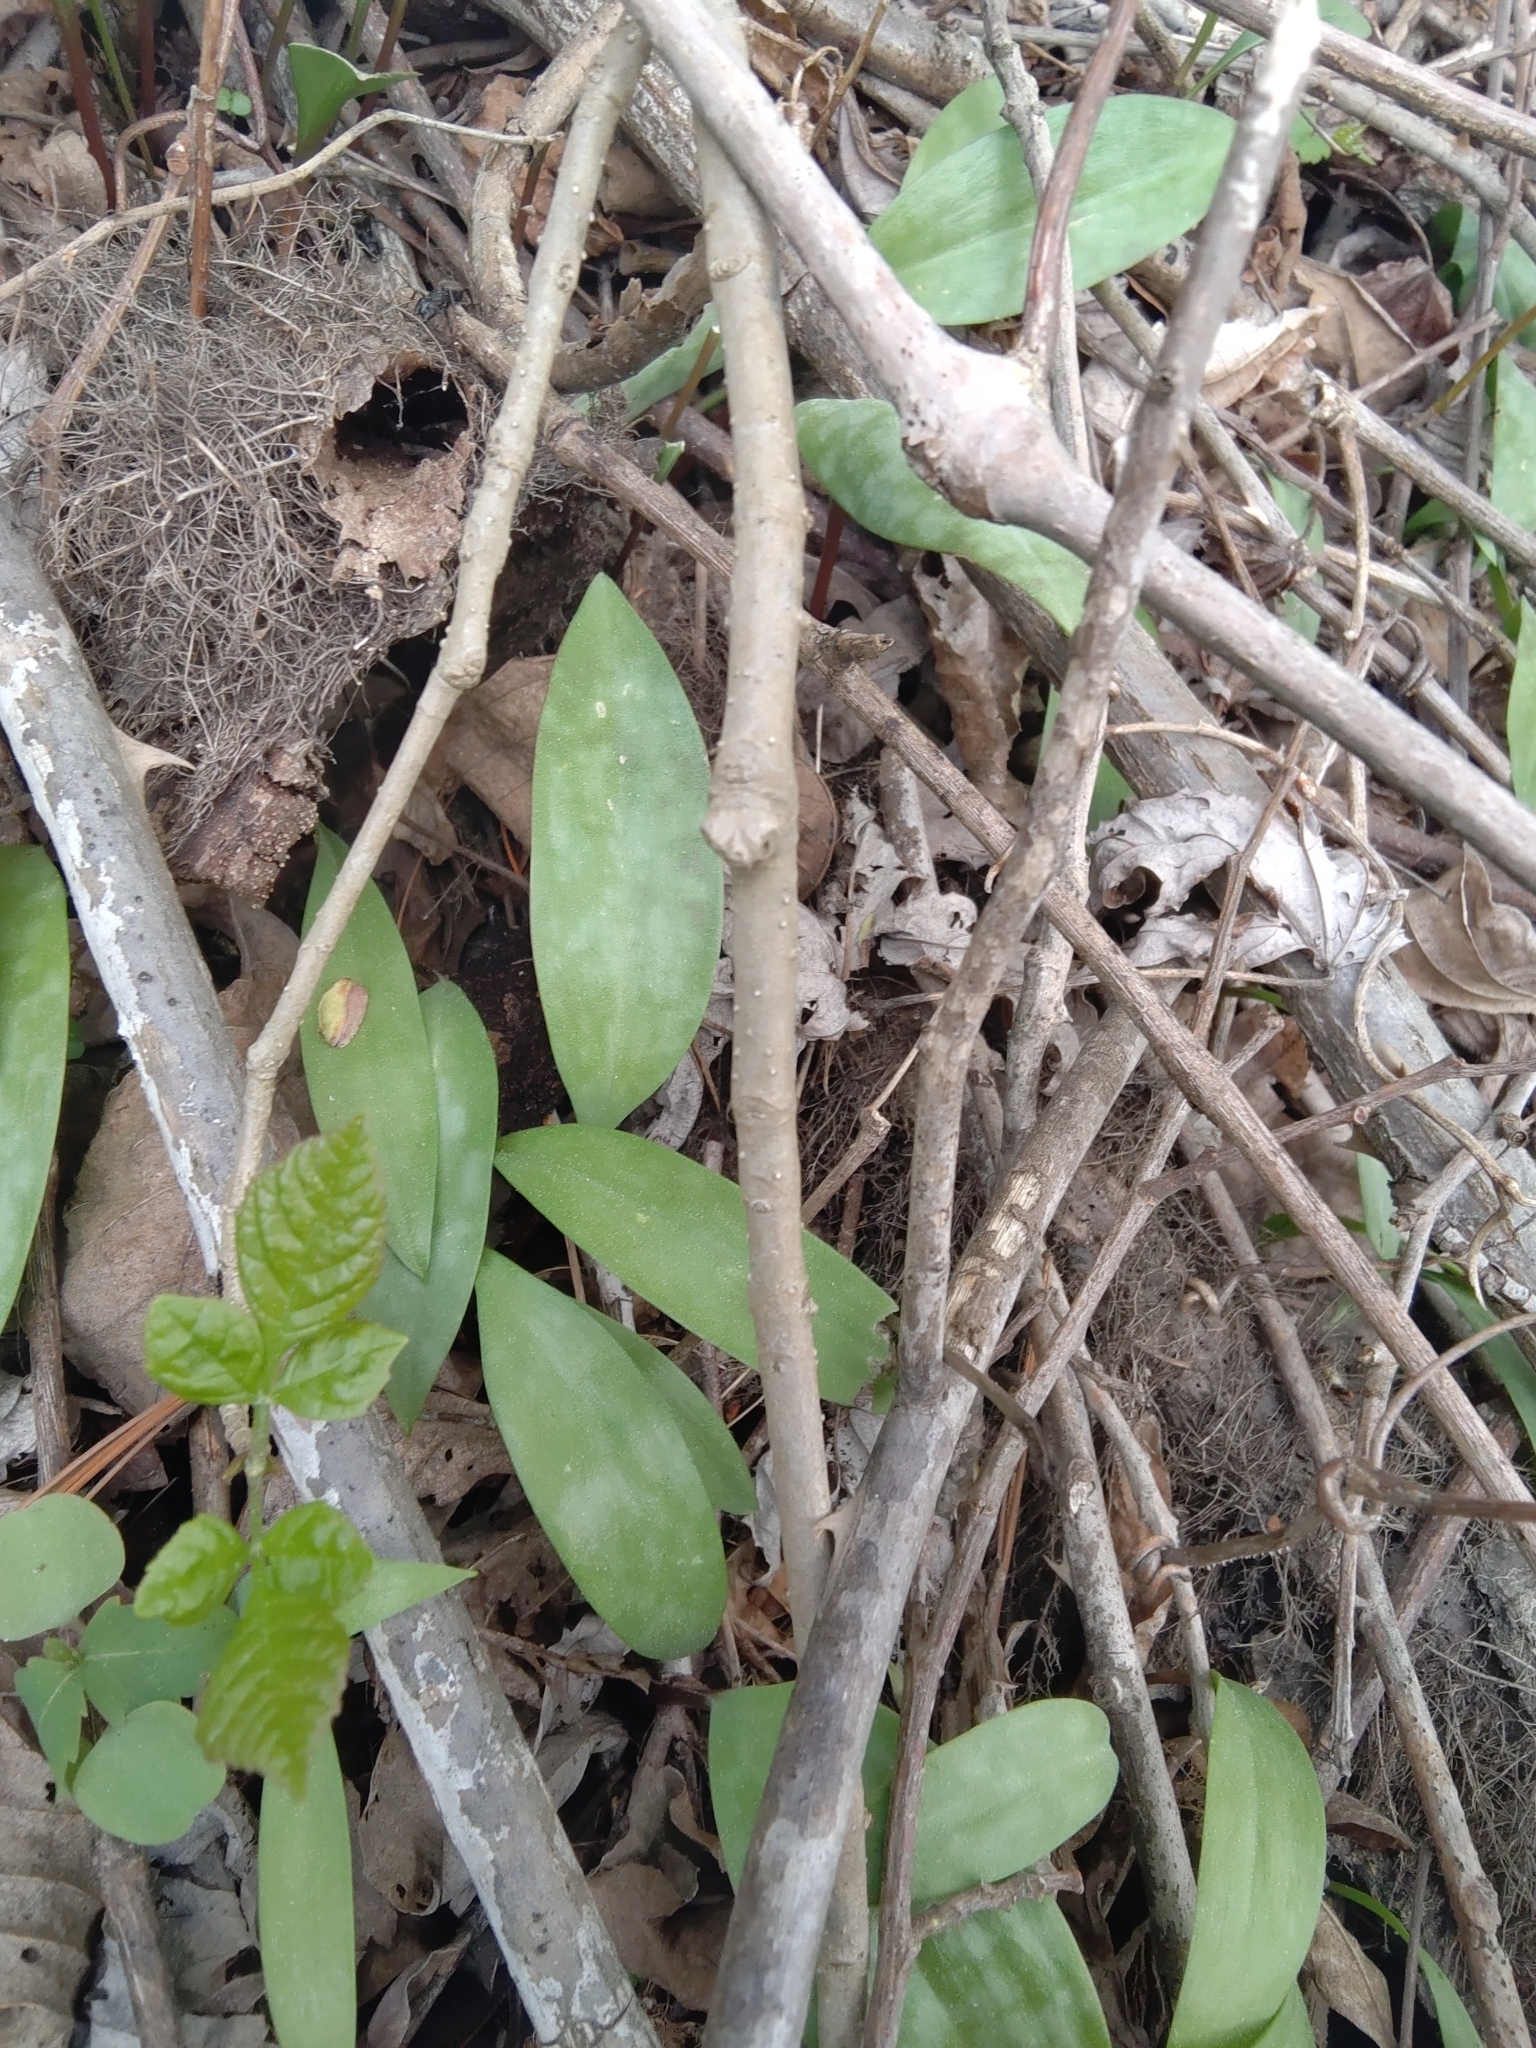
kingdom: Plantae
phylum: Tracheophyta
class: Liliopsida
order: Liliales
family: Liliaceae
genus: Erythronium
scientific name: Erythronium americanum
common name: Yellow adder's-tongue
